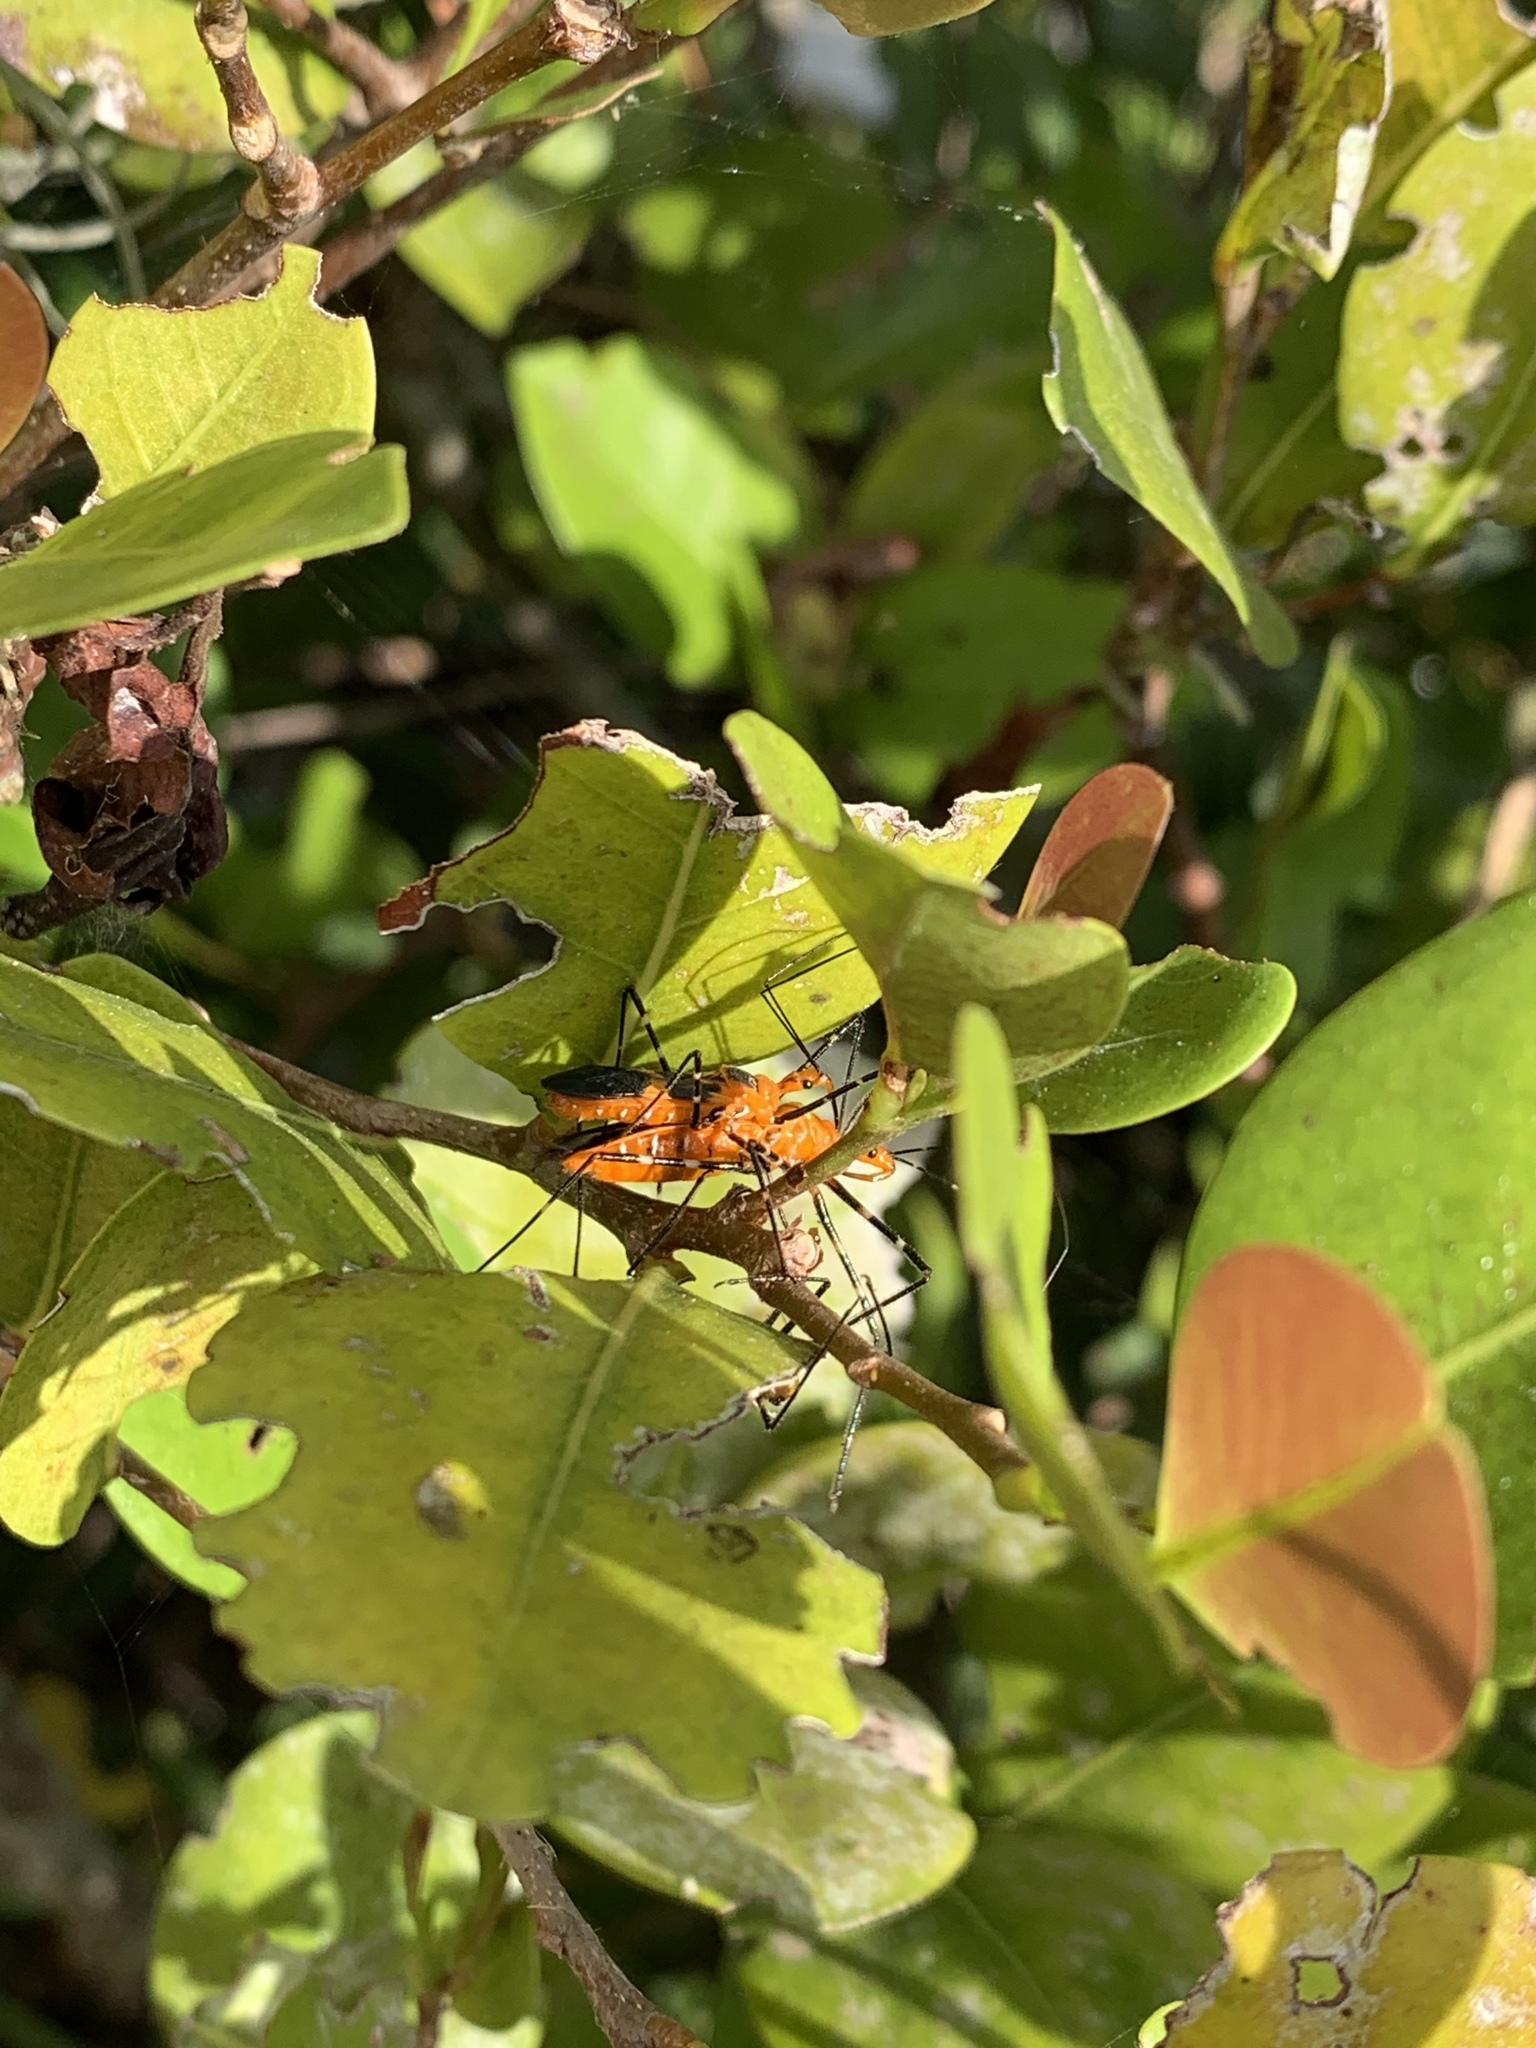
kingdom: Animalia
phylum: Arthropoda
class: Insecta
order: Hemiptera
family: Reduviidae
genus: Zelus
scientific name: Zelus longipes
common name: Milkweed assassin bug
